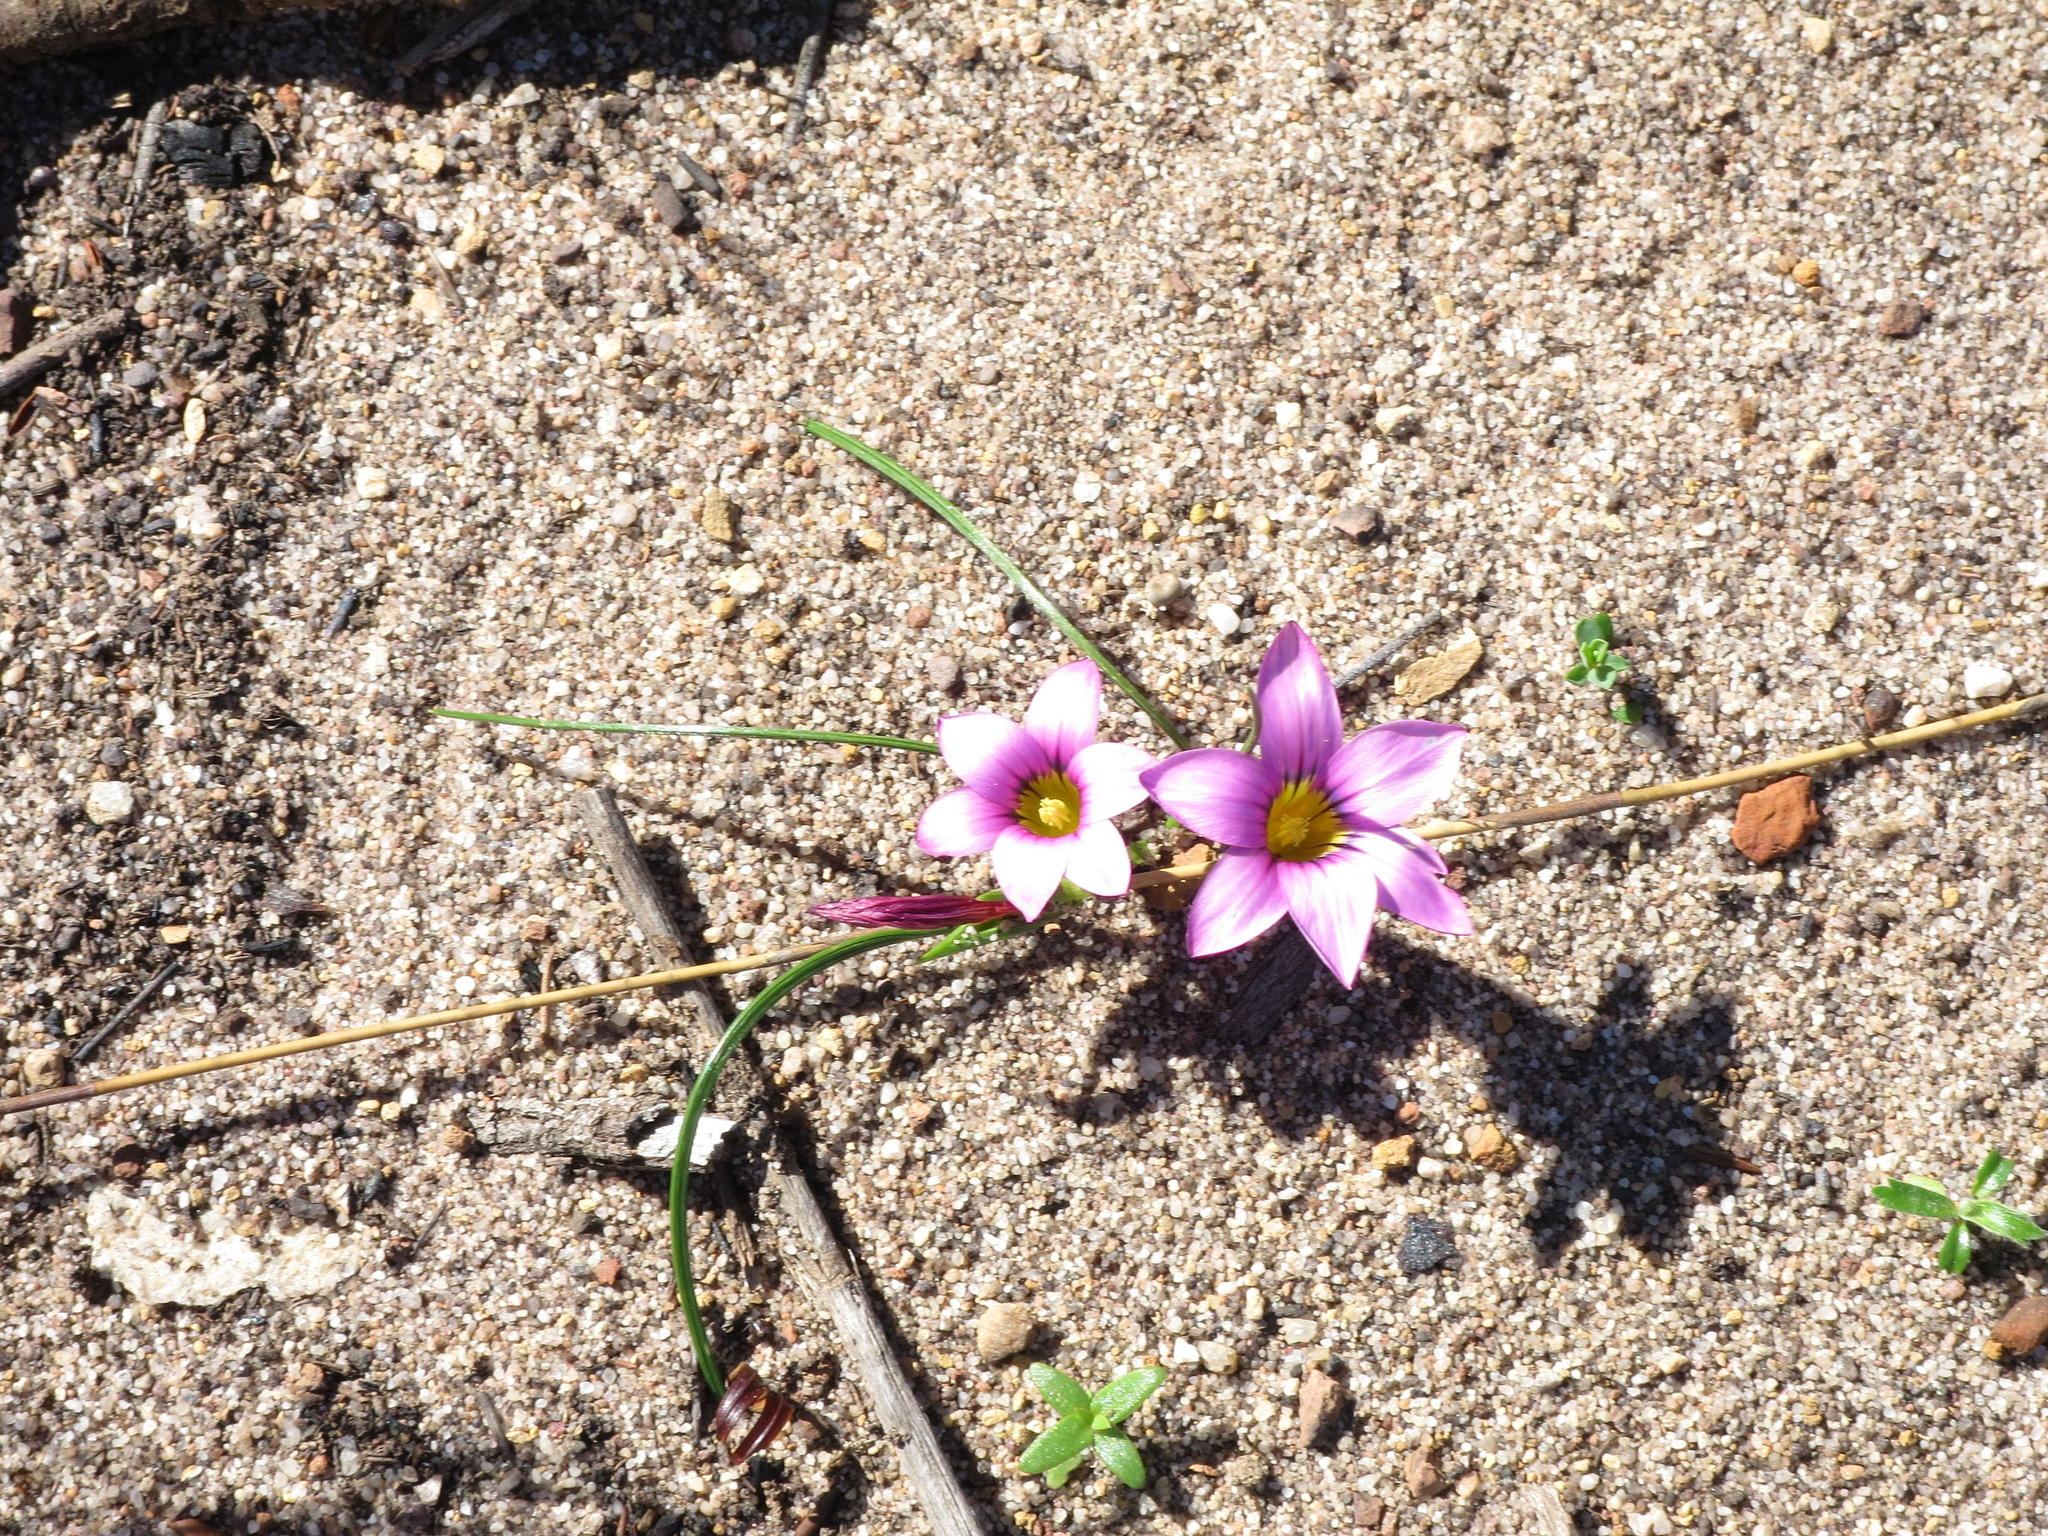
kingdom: Plantae
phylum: Tracheophyta
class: Liliopsida
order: Asparagales
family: Iridaceae
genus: Romulea
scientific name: Romulea rosea
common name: Oniongrass
